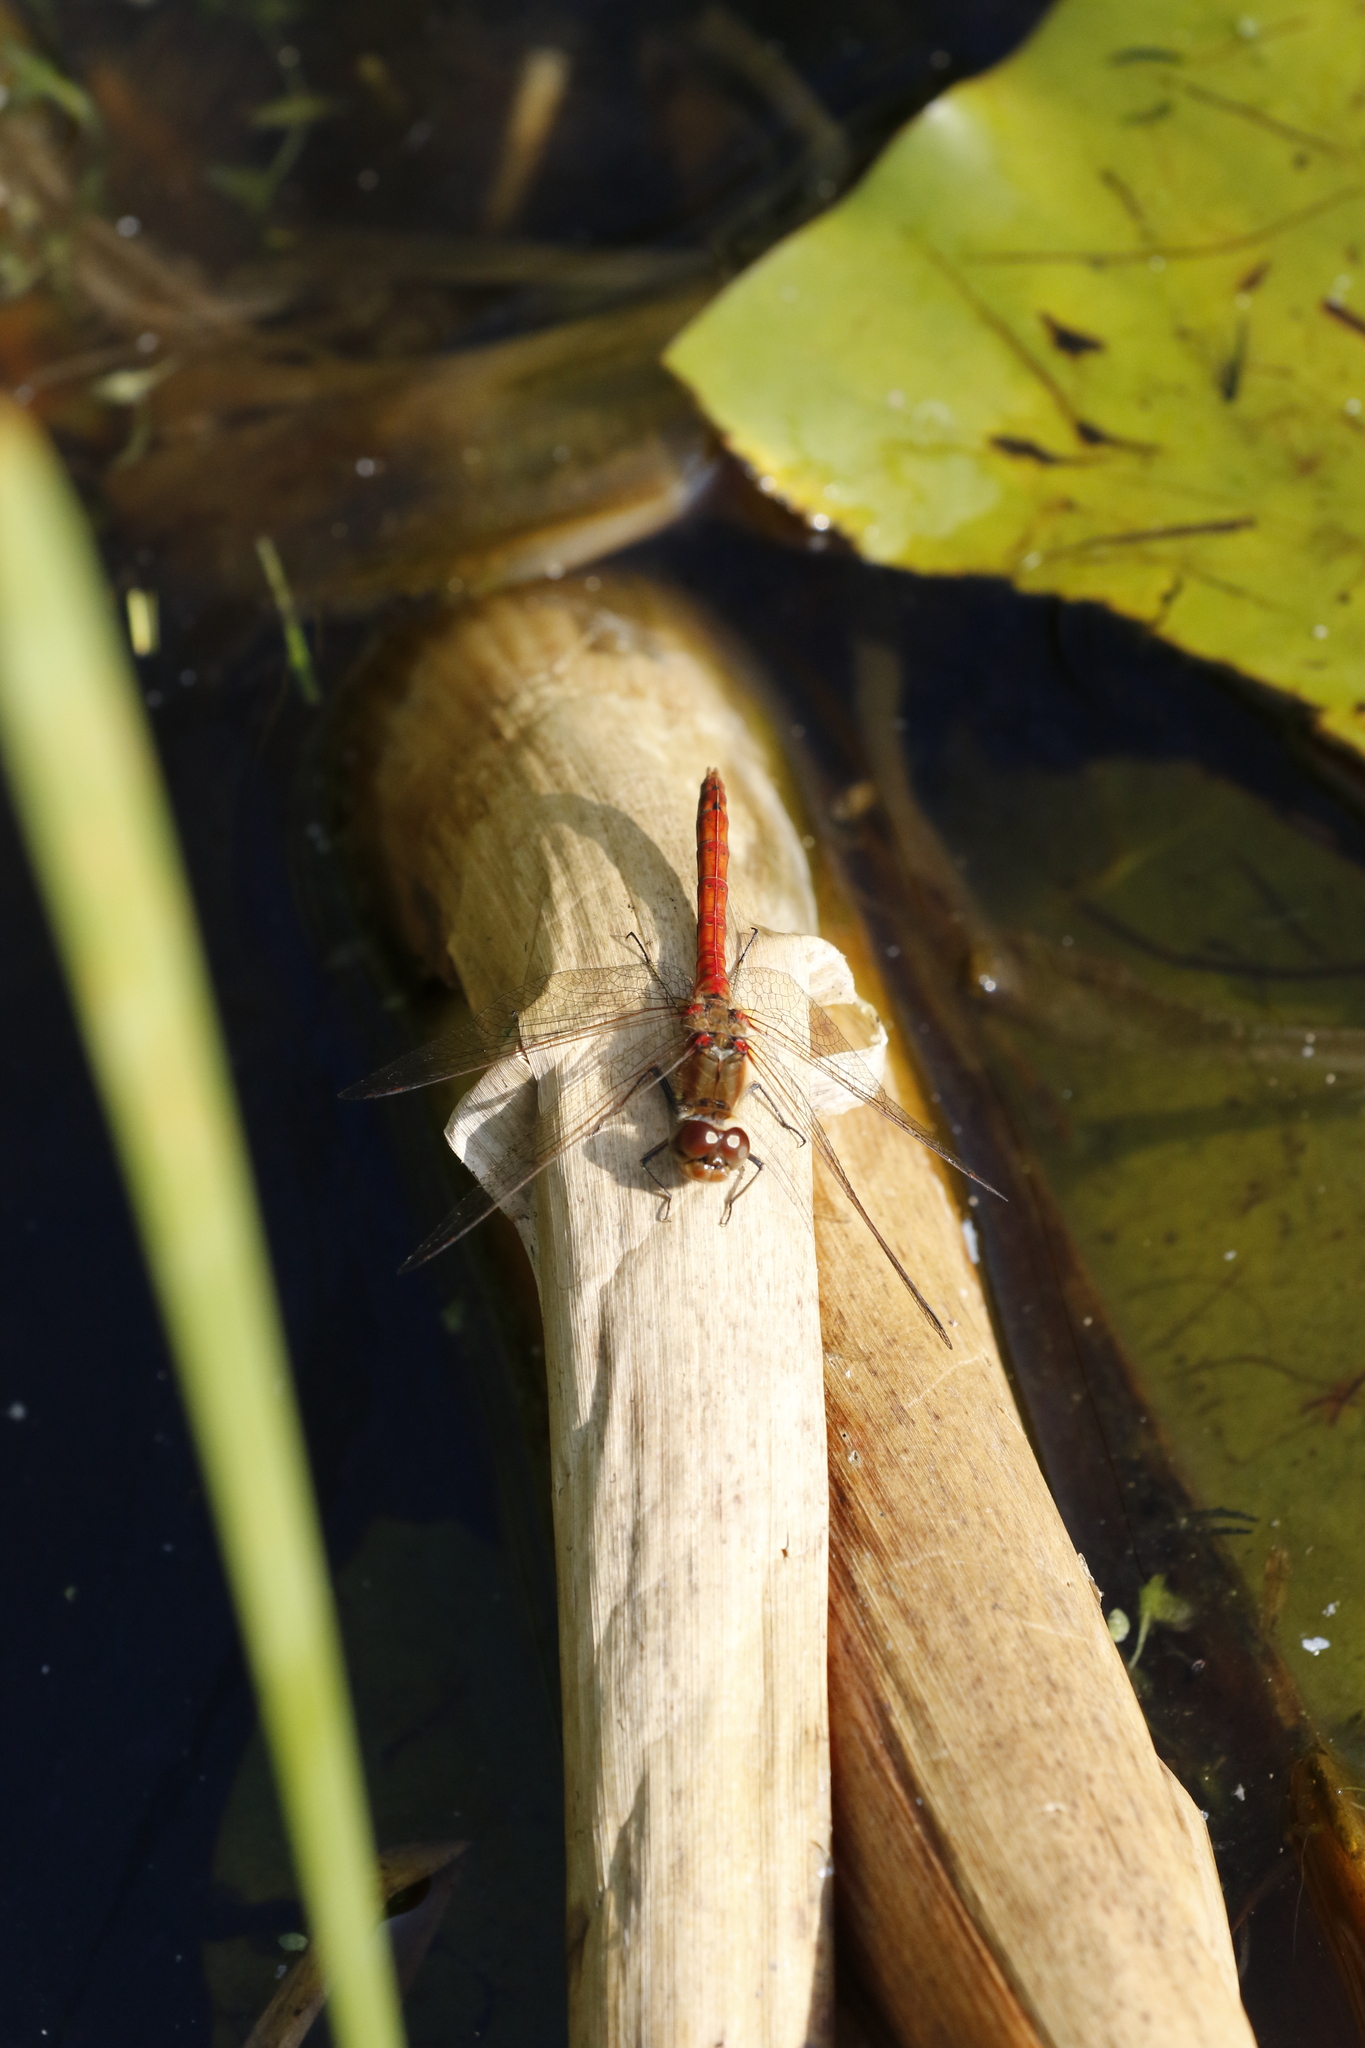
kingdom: Animalia
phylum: Arthropoda
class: Insecta
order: Odonata
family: Libellulidae
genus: Sympetrum
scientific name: Sympetrum striolatum
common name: Common darter
